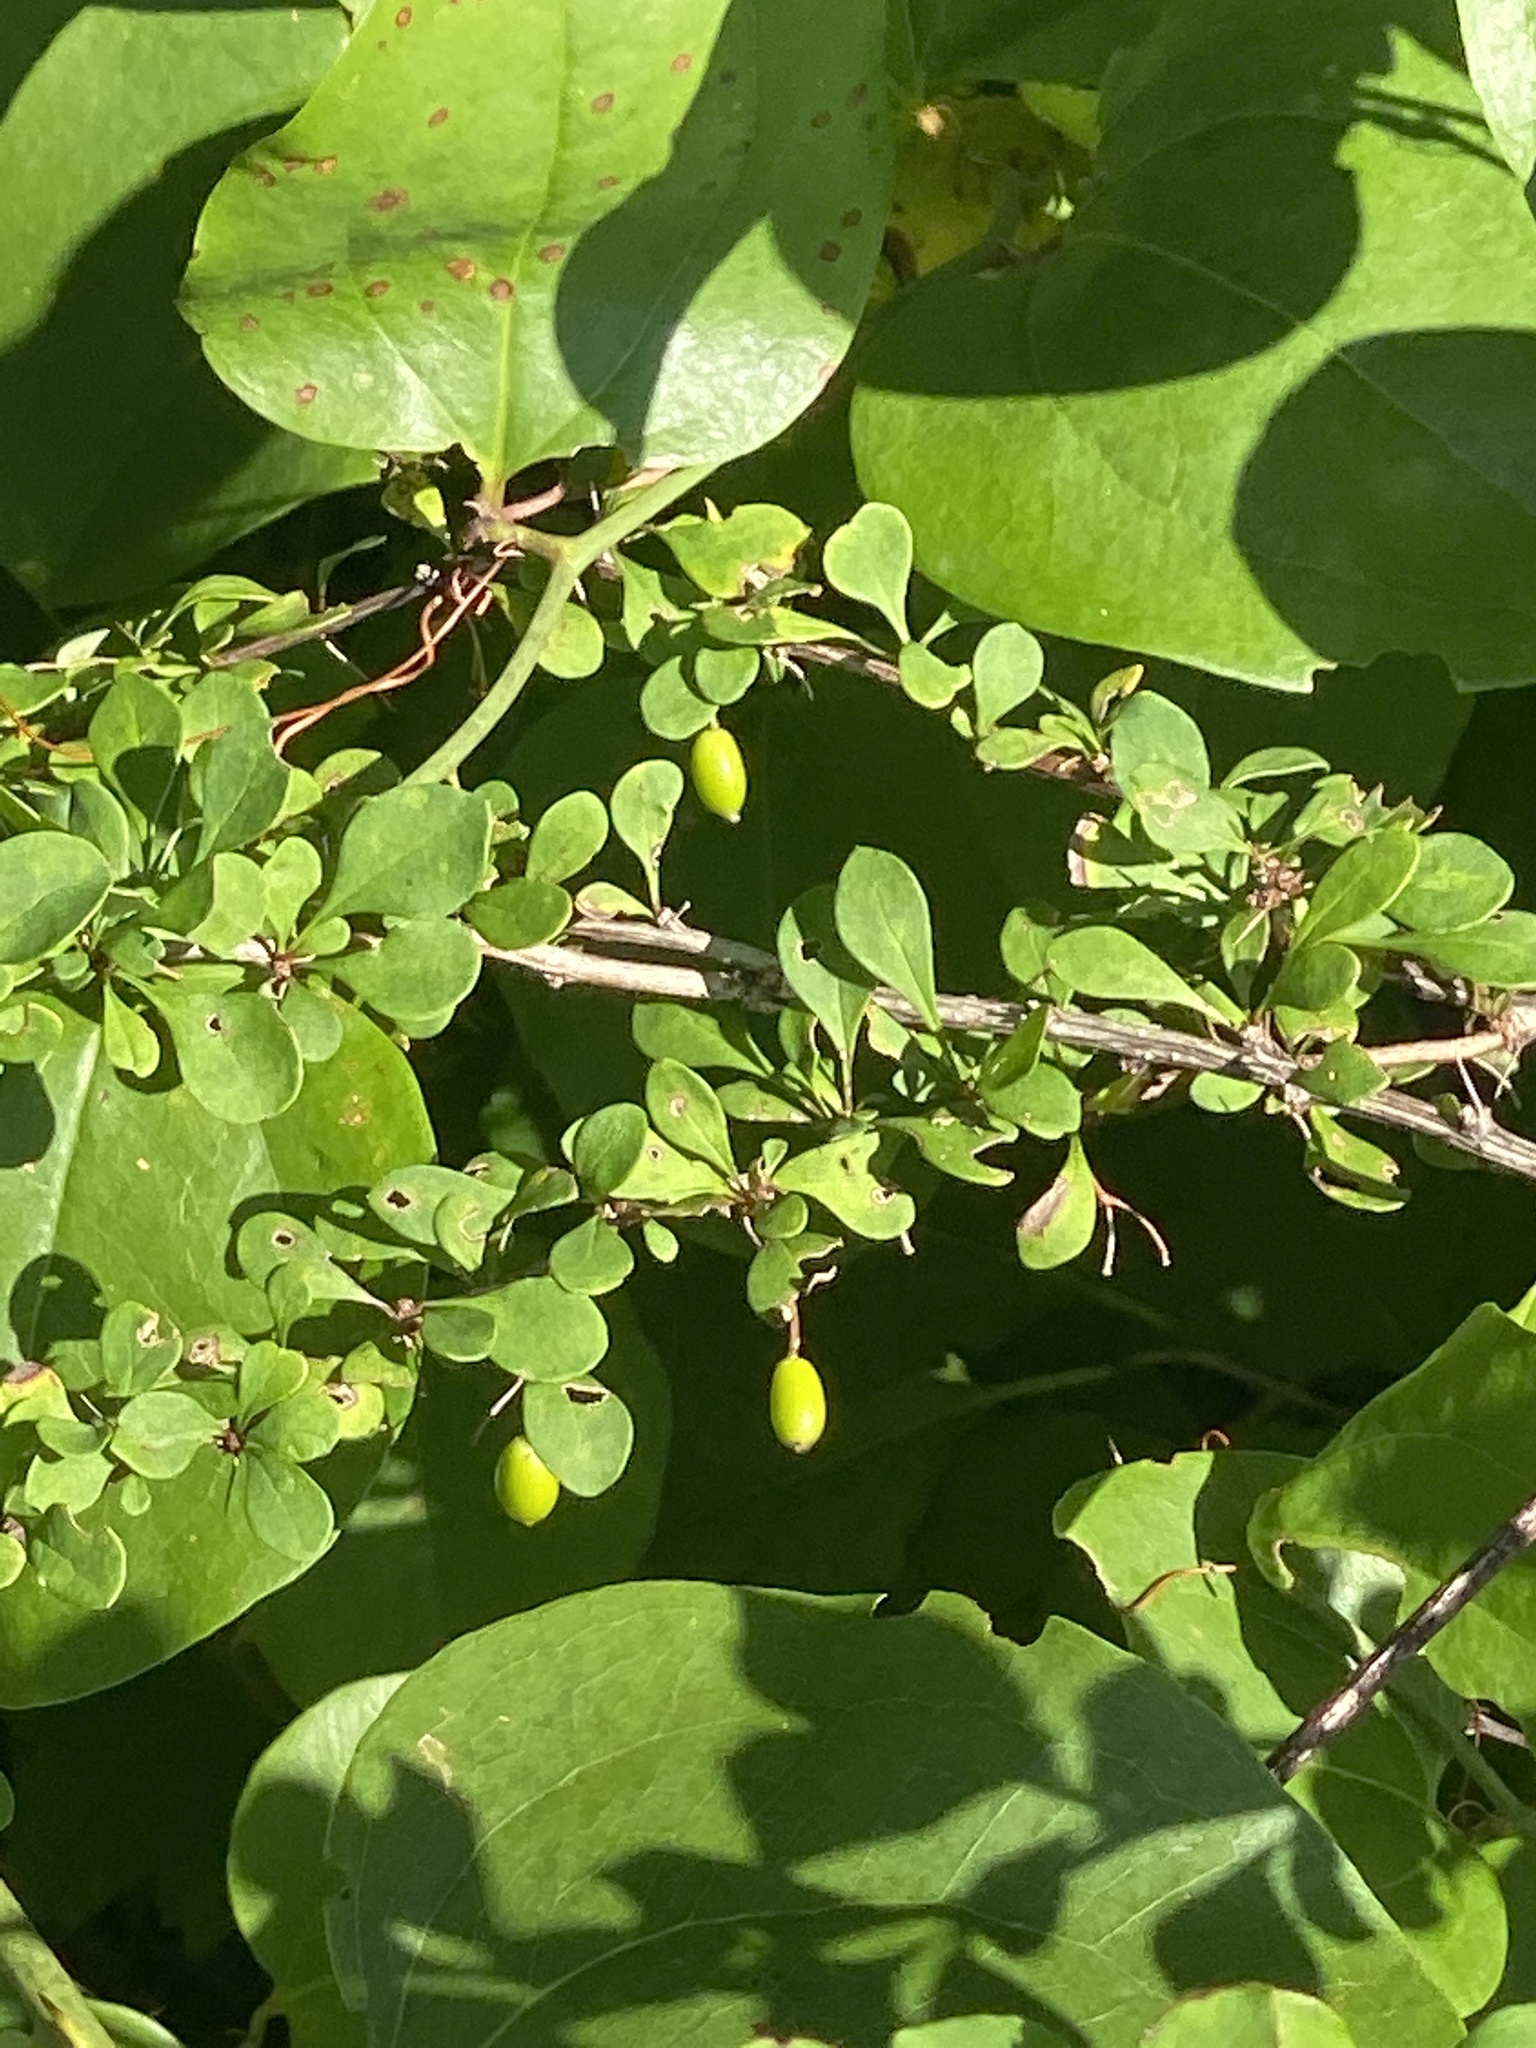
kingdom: Plantae
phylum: Tracheophyta
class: Magnoliopsida
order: Ranunculales
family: Berberidaceae
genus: Berberis
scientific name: Berberis thunbergii
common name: Japanese barberry
